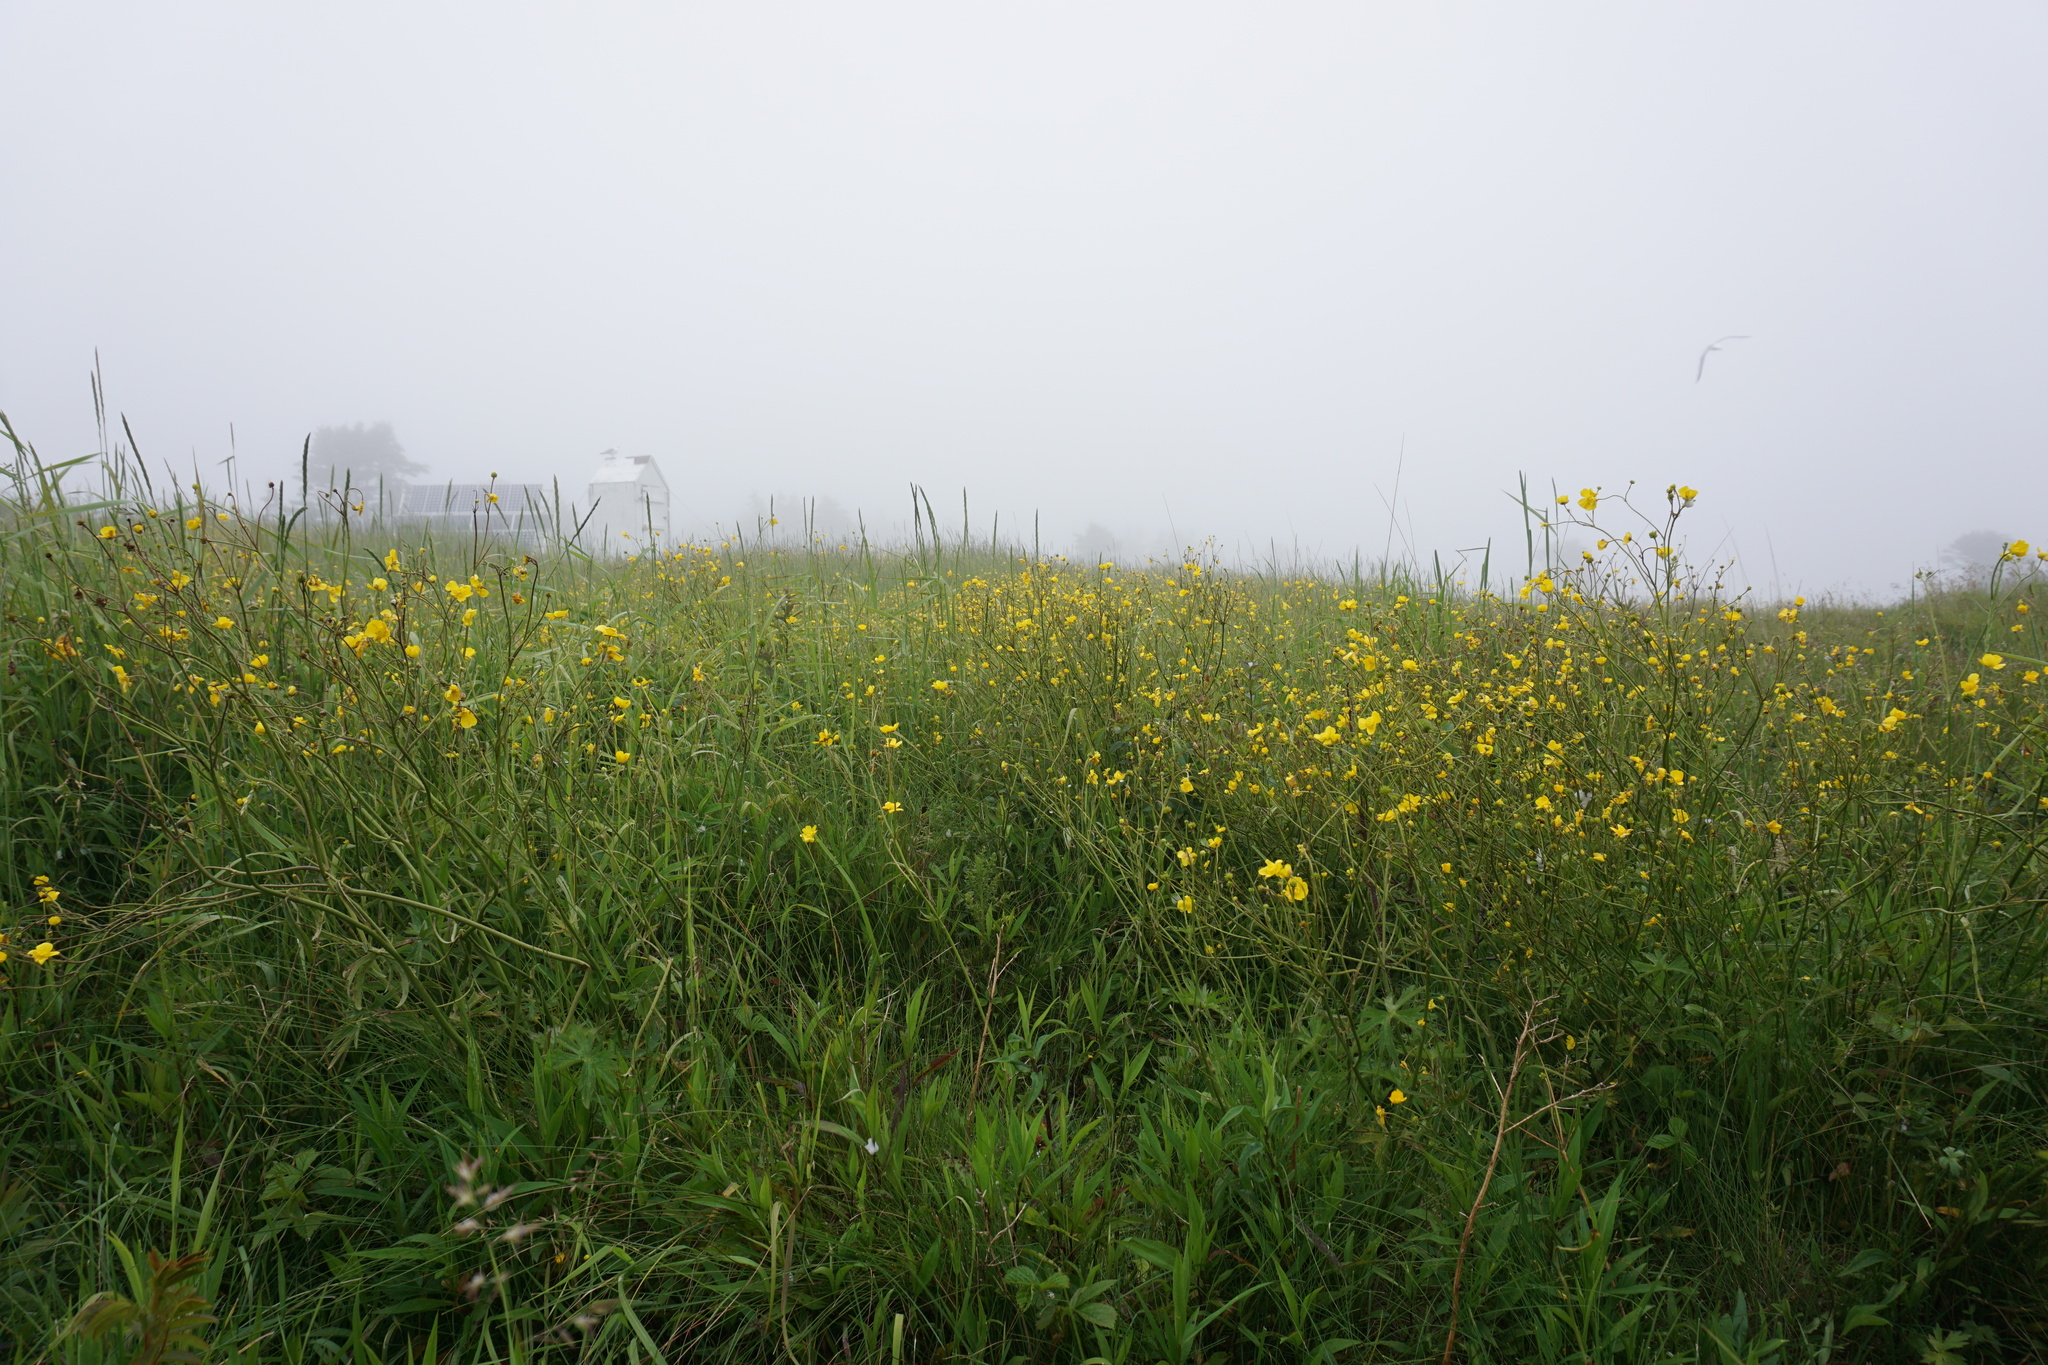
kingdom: Plantae
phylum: Tracheophyta
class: Magnoliopsida
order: Ranunculales
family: Ranunculaceae
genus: Ranunculus
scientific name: Ranunculus acris
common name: Meadow buttercup
